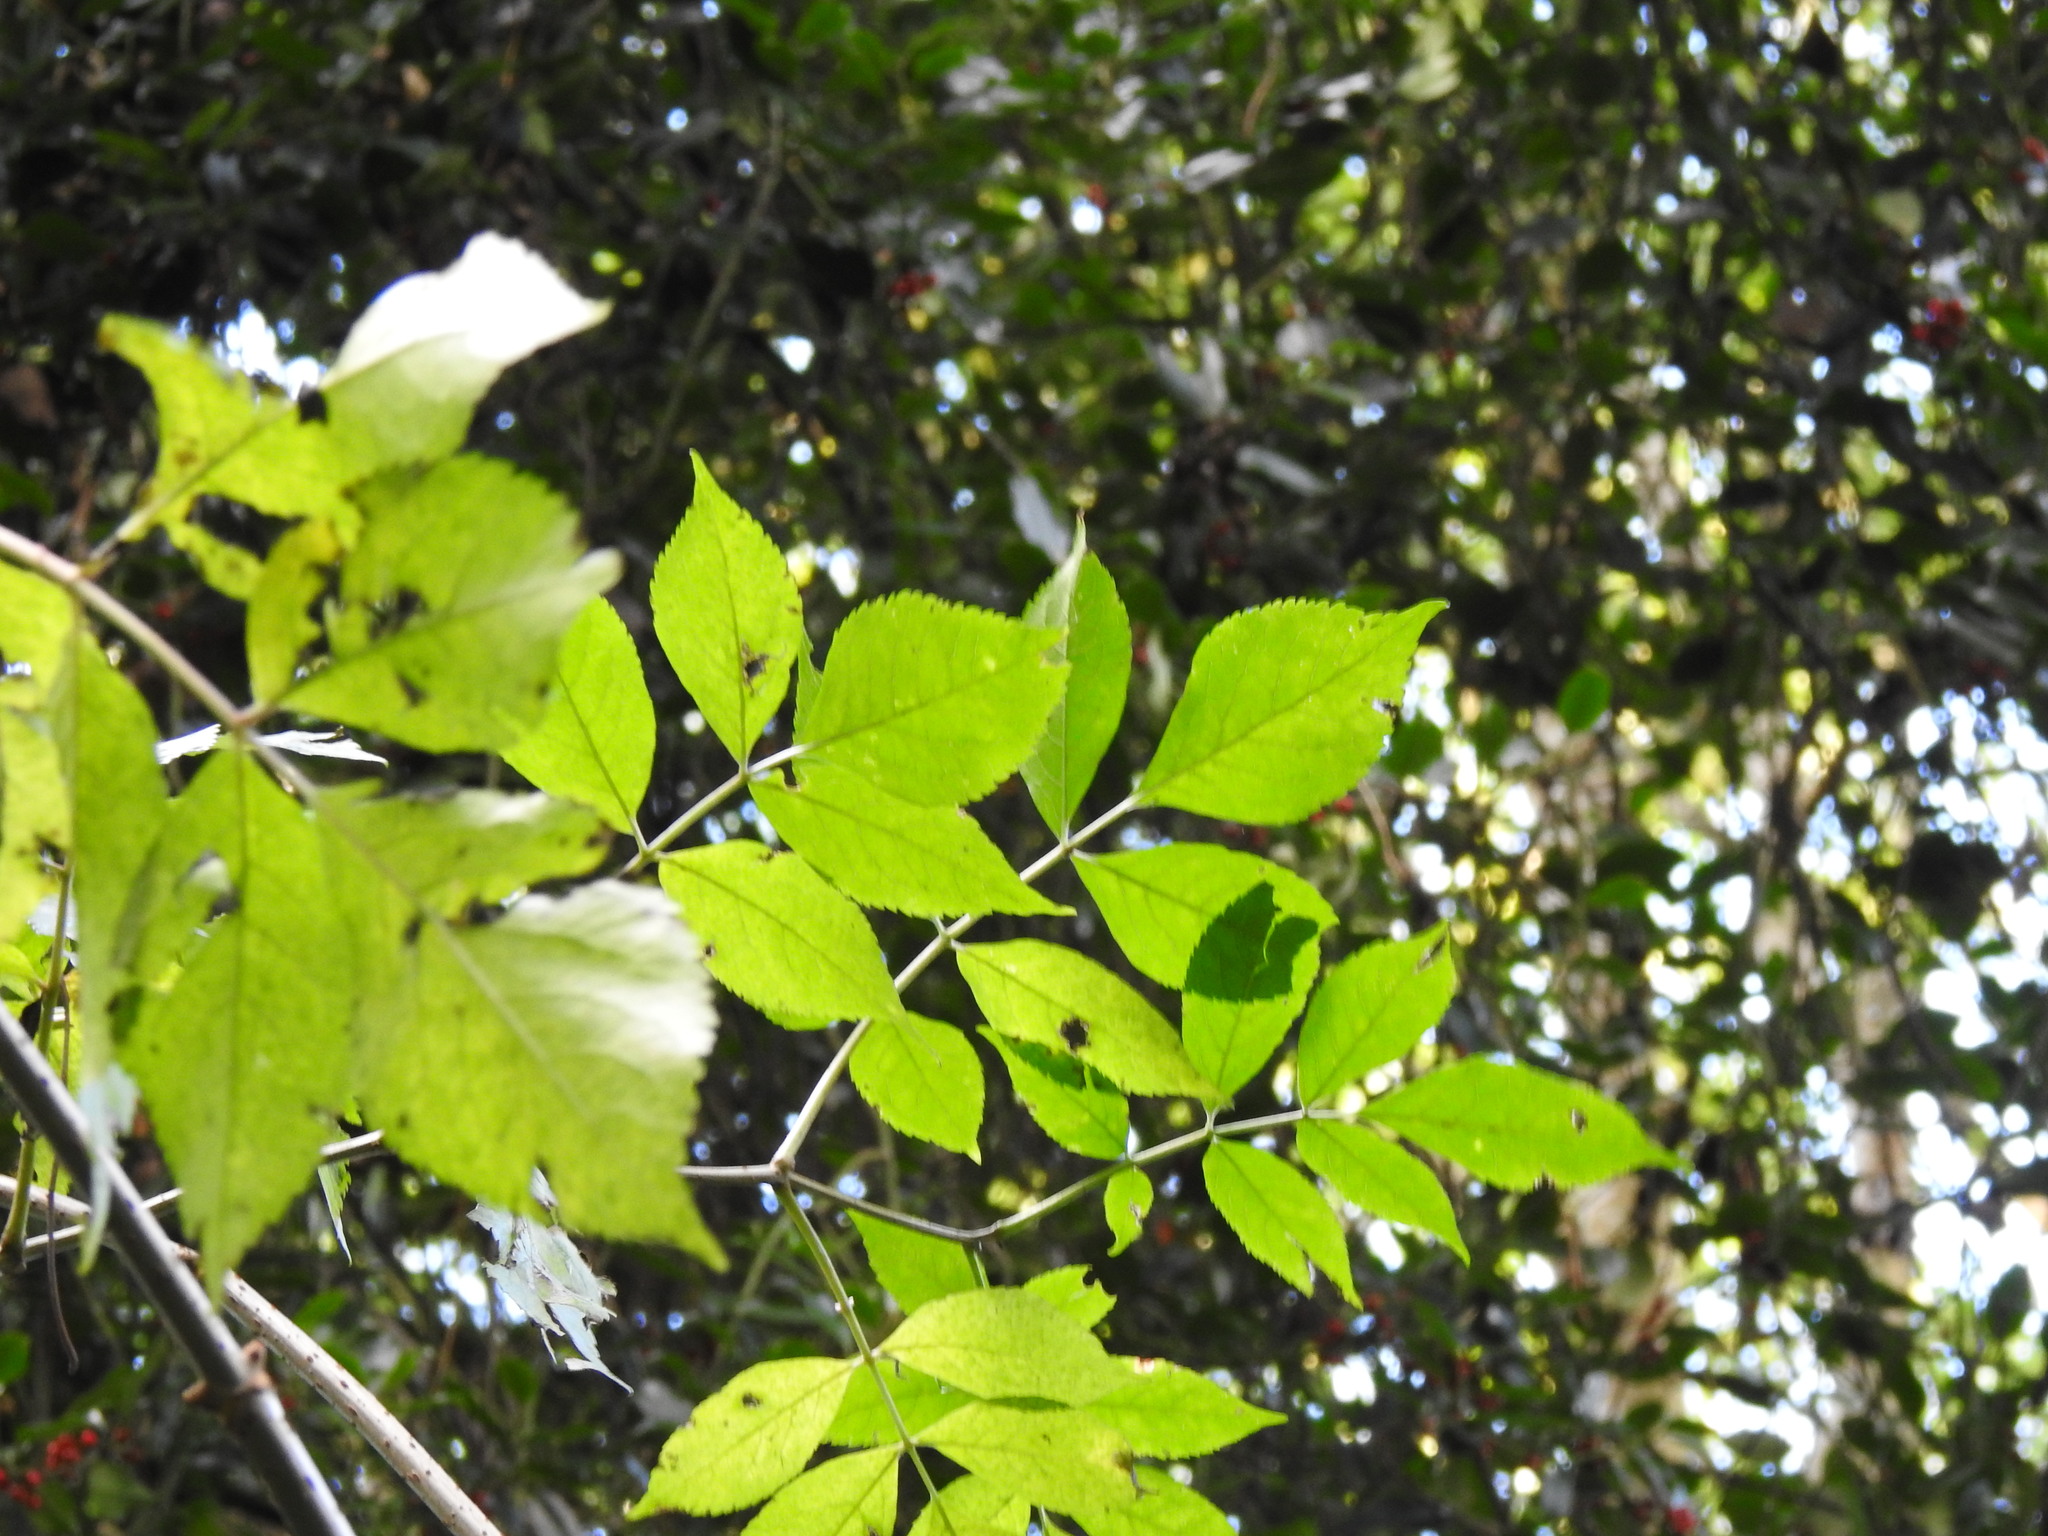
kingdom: Plantae
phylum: Tracheophyta
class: Magnoliopsida
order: Dipsacales
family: Viburnaceae
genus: Sambucus
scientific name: Sambucus nigra
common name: Elder
